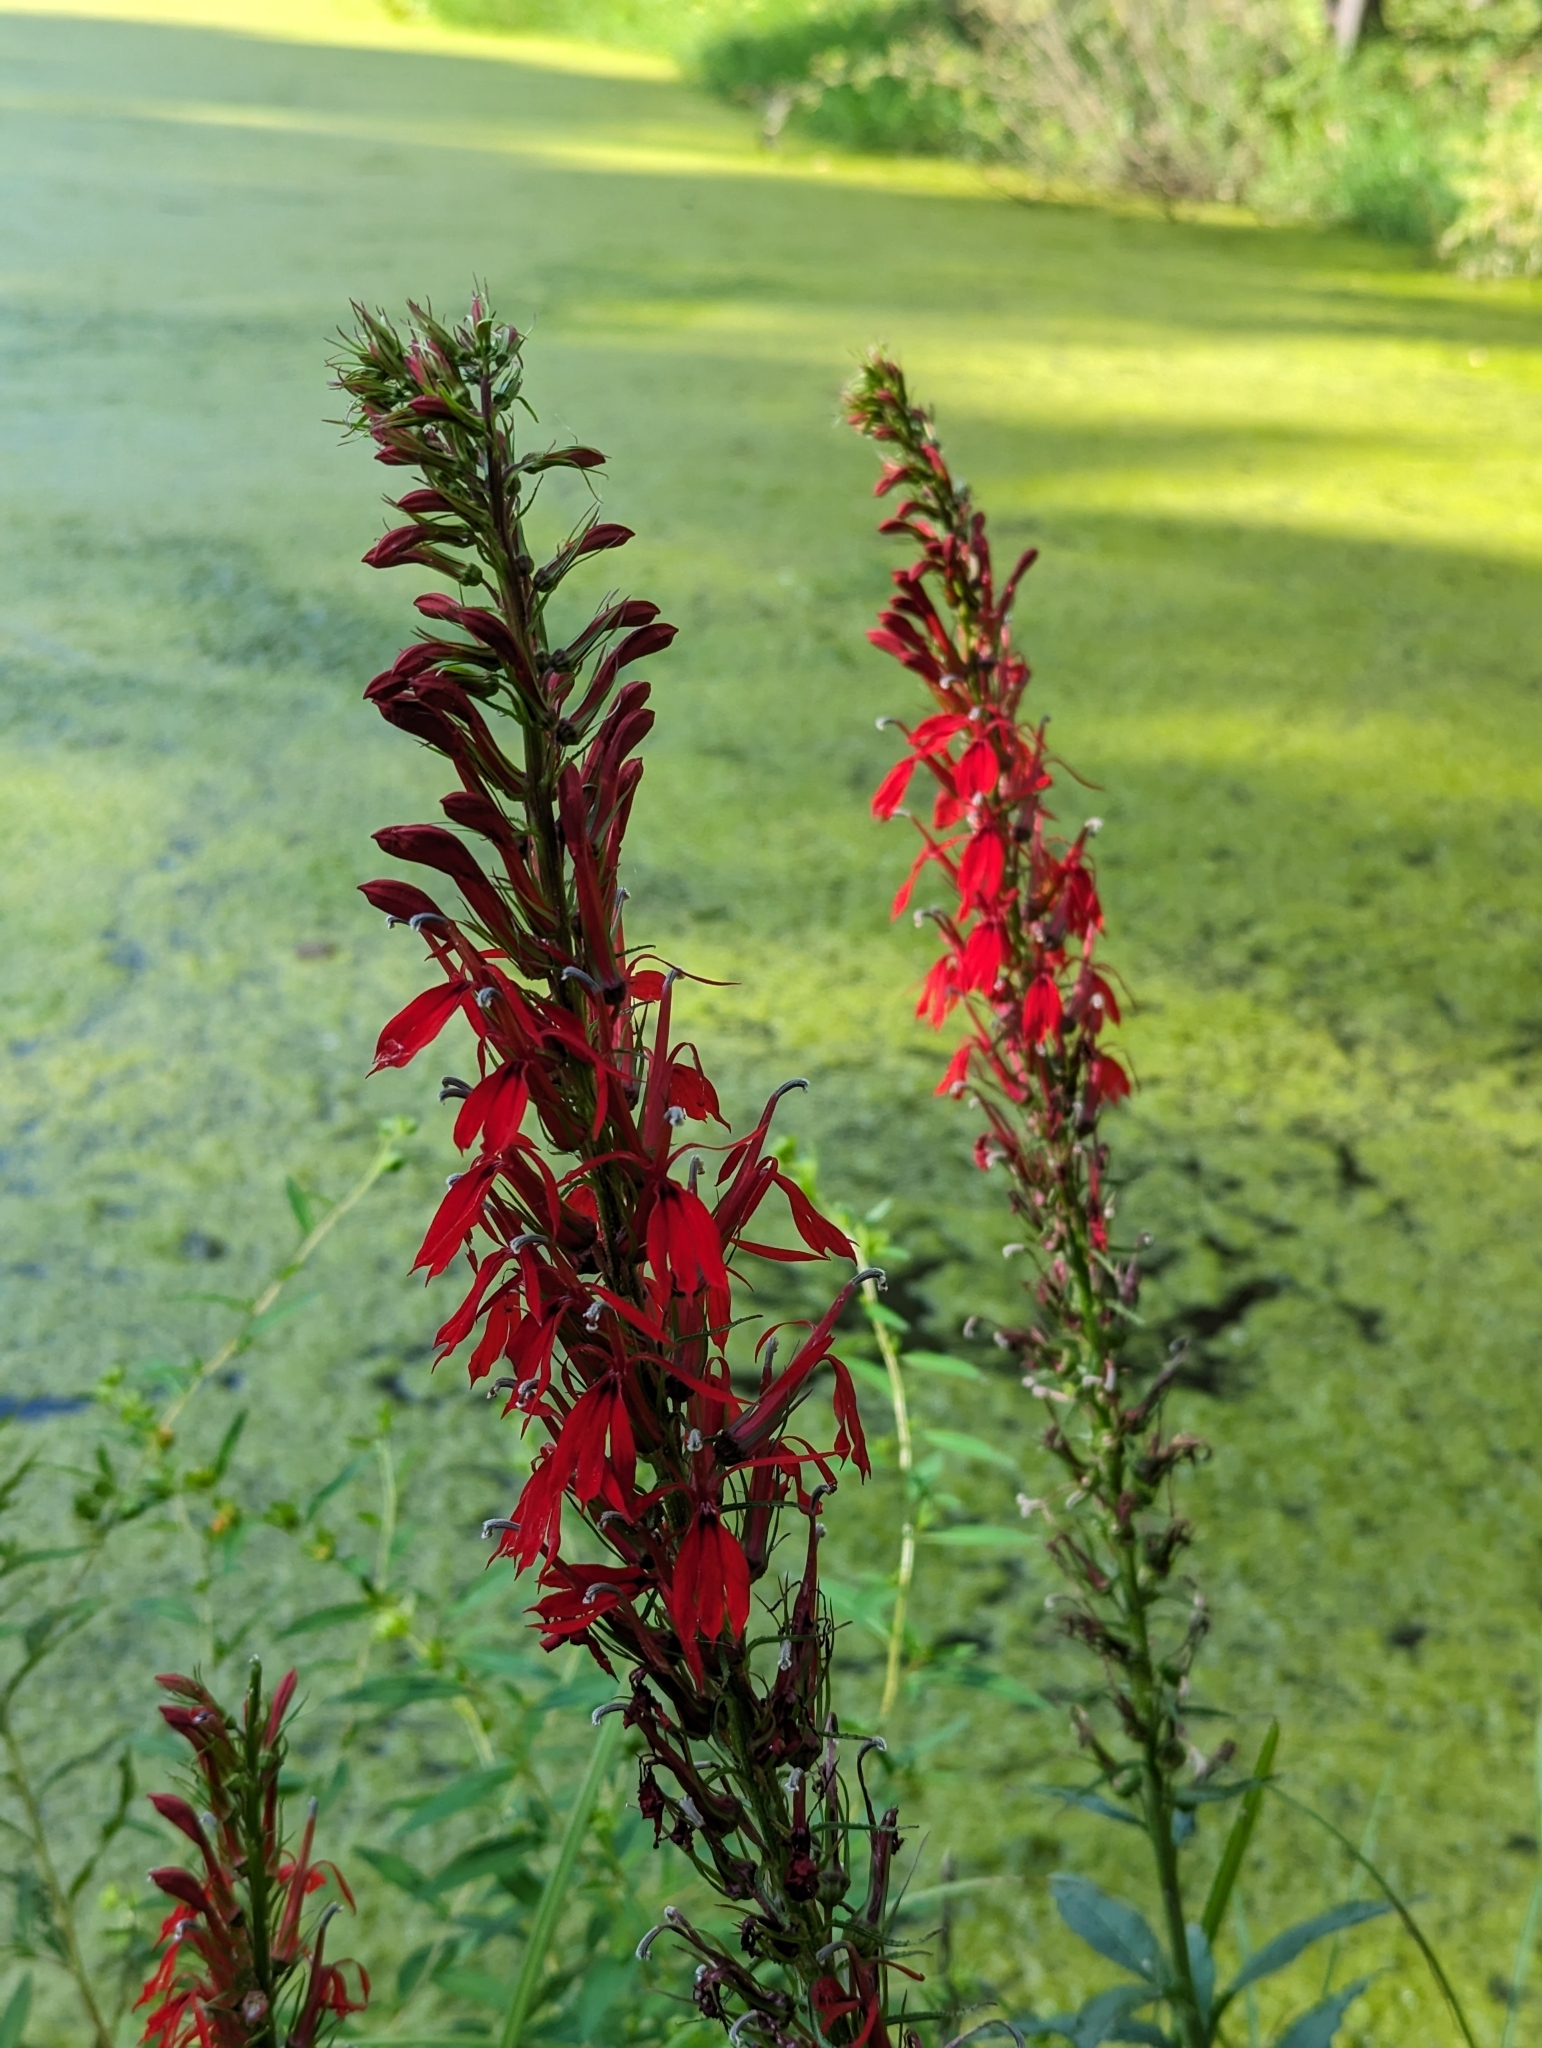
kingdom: Plantae
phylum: Tracheophyta
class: Magnoliopsida
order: Asterales
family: Campanulaceae
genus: Lobelia
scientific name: Lobelia cardinalis
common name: Cardinal flower
